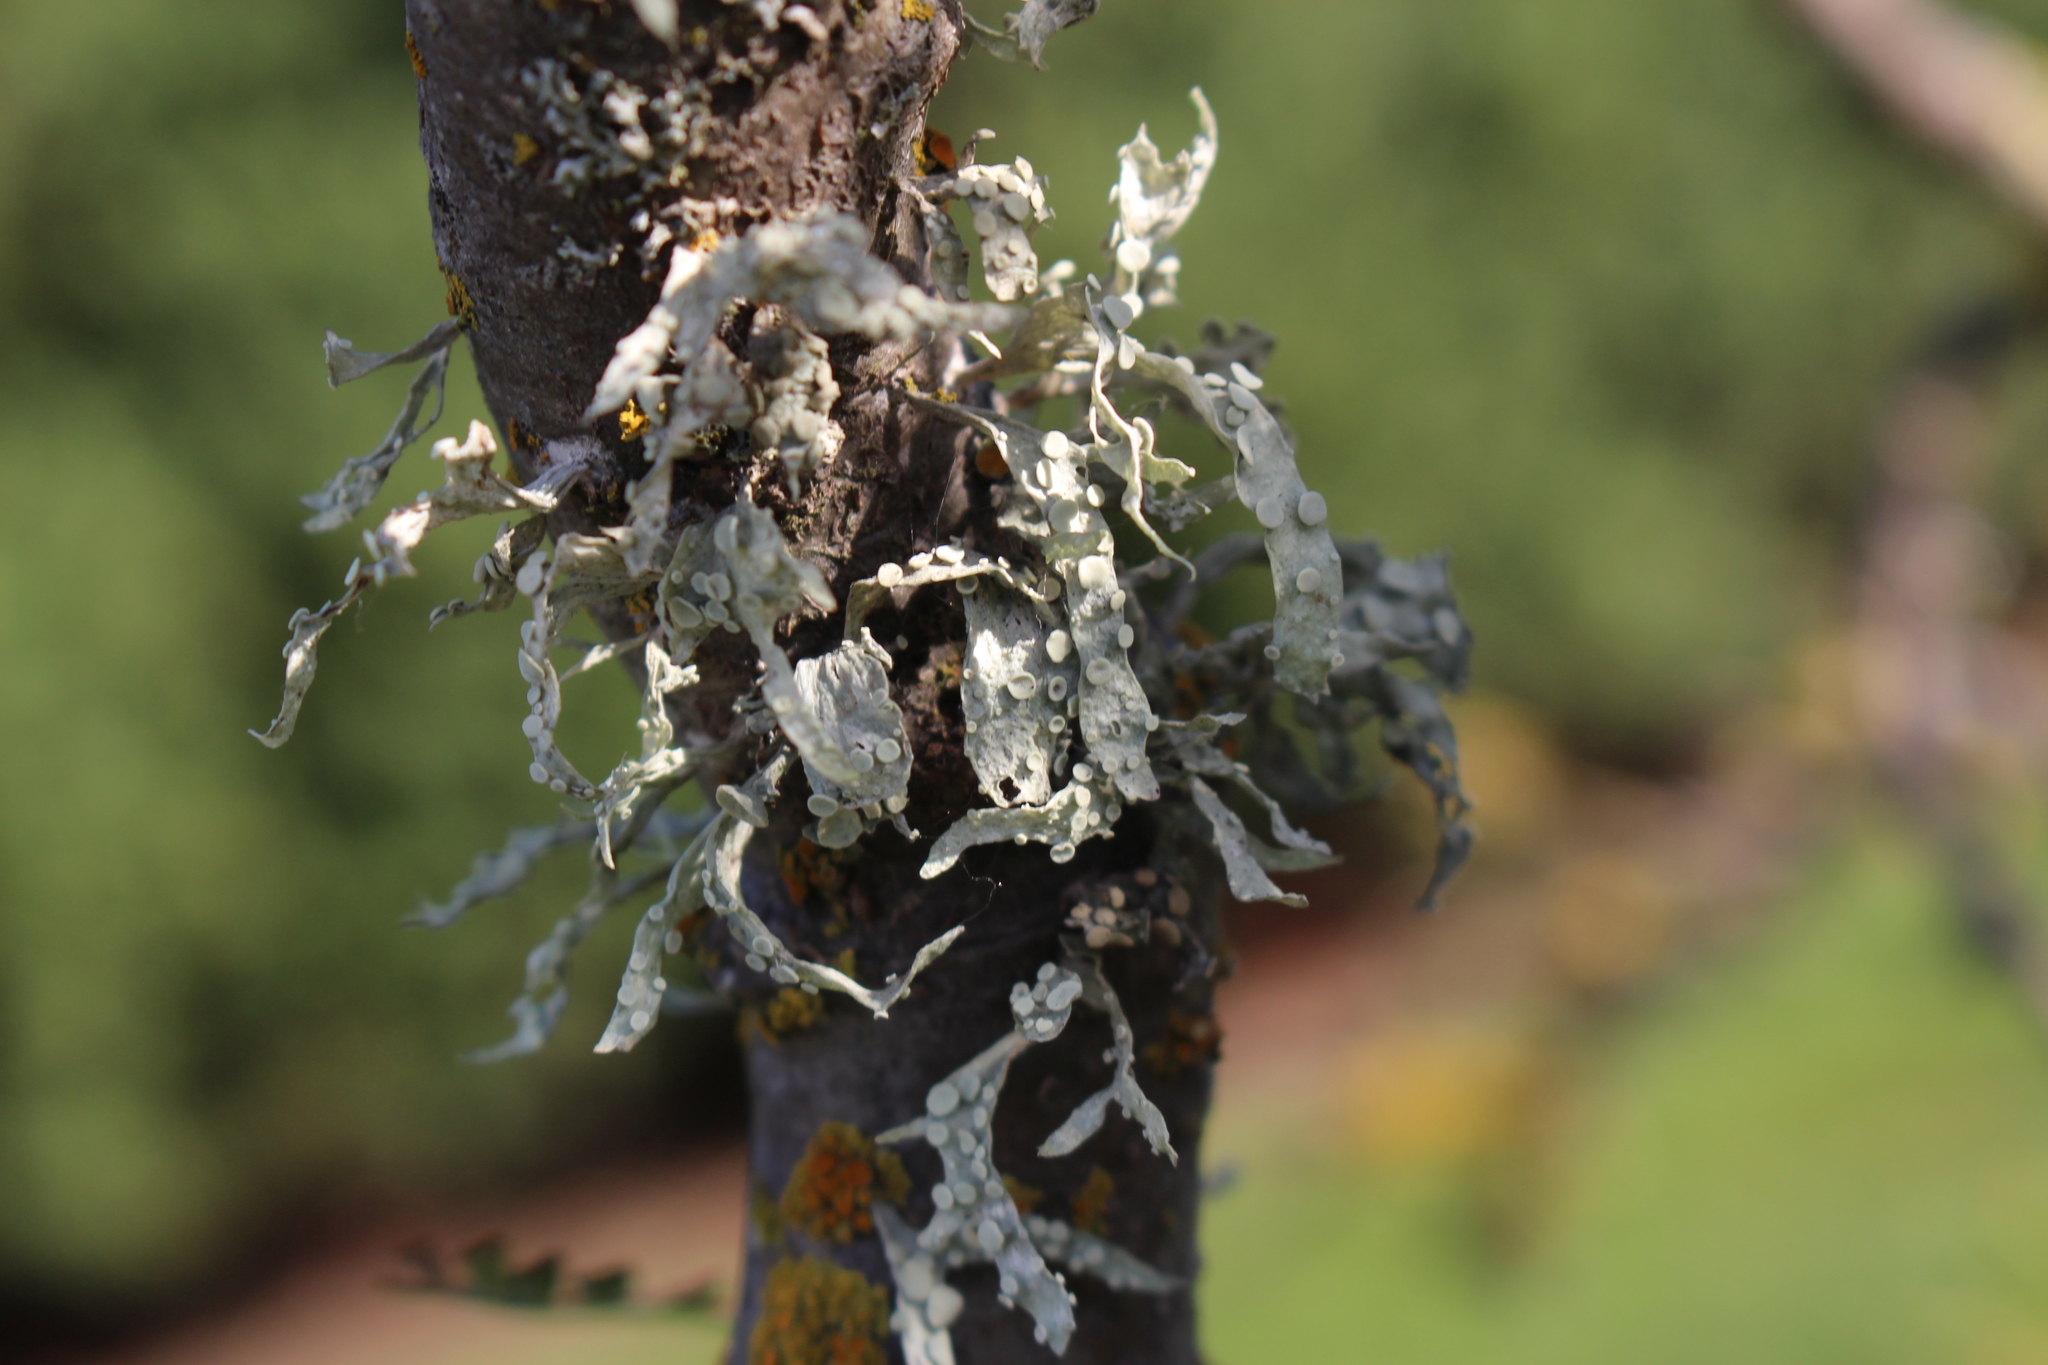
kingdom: Fungi
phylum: Ascomycota
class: Lecanoromycetes
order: Lecanorales
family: Ramalinaceae
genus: Ramalina
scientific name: Ramalina celastri
